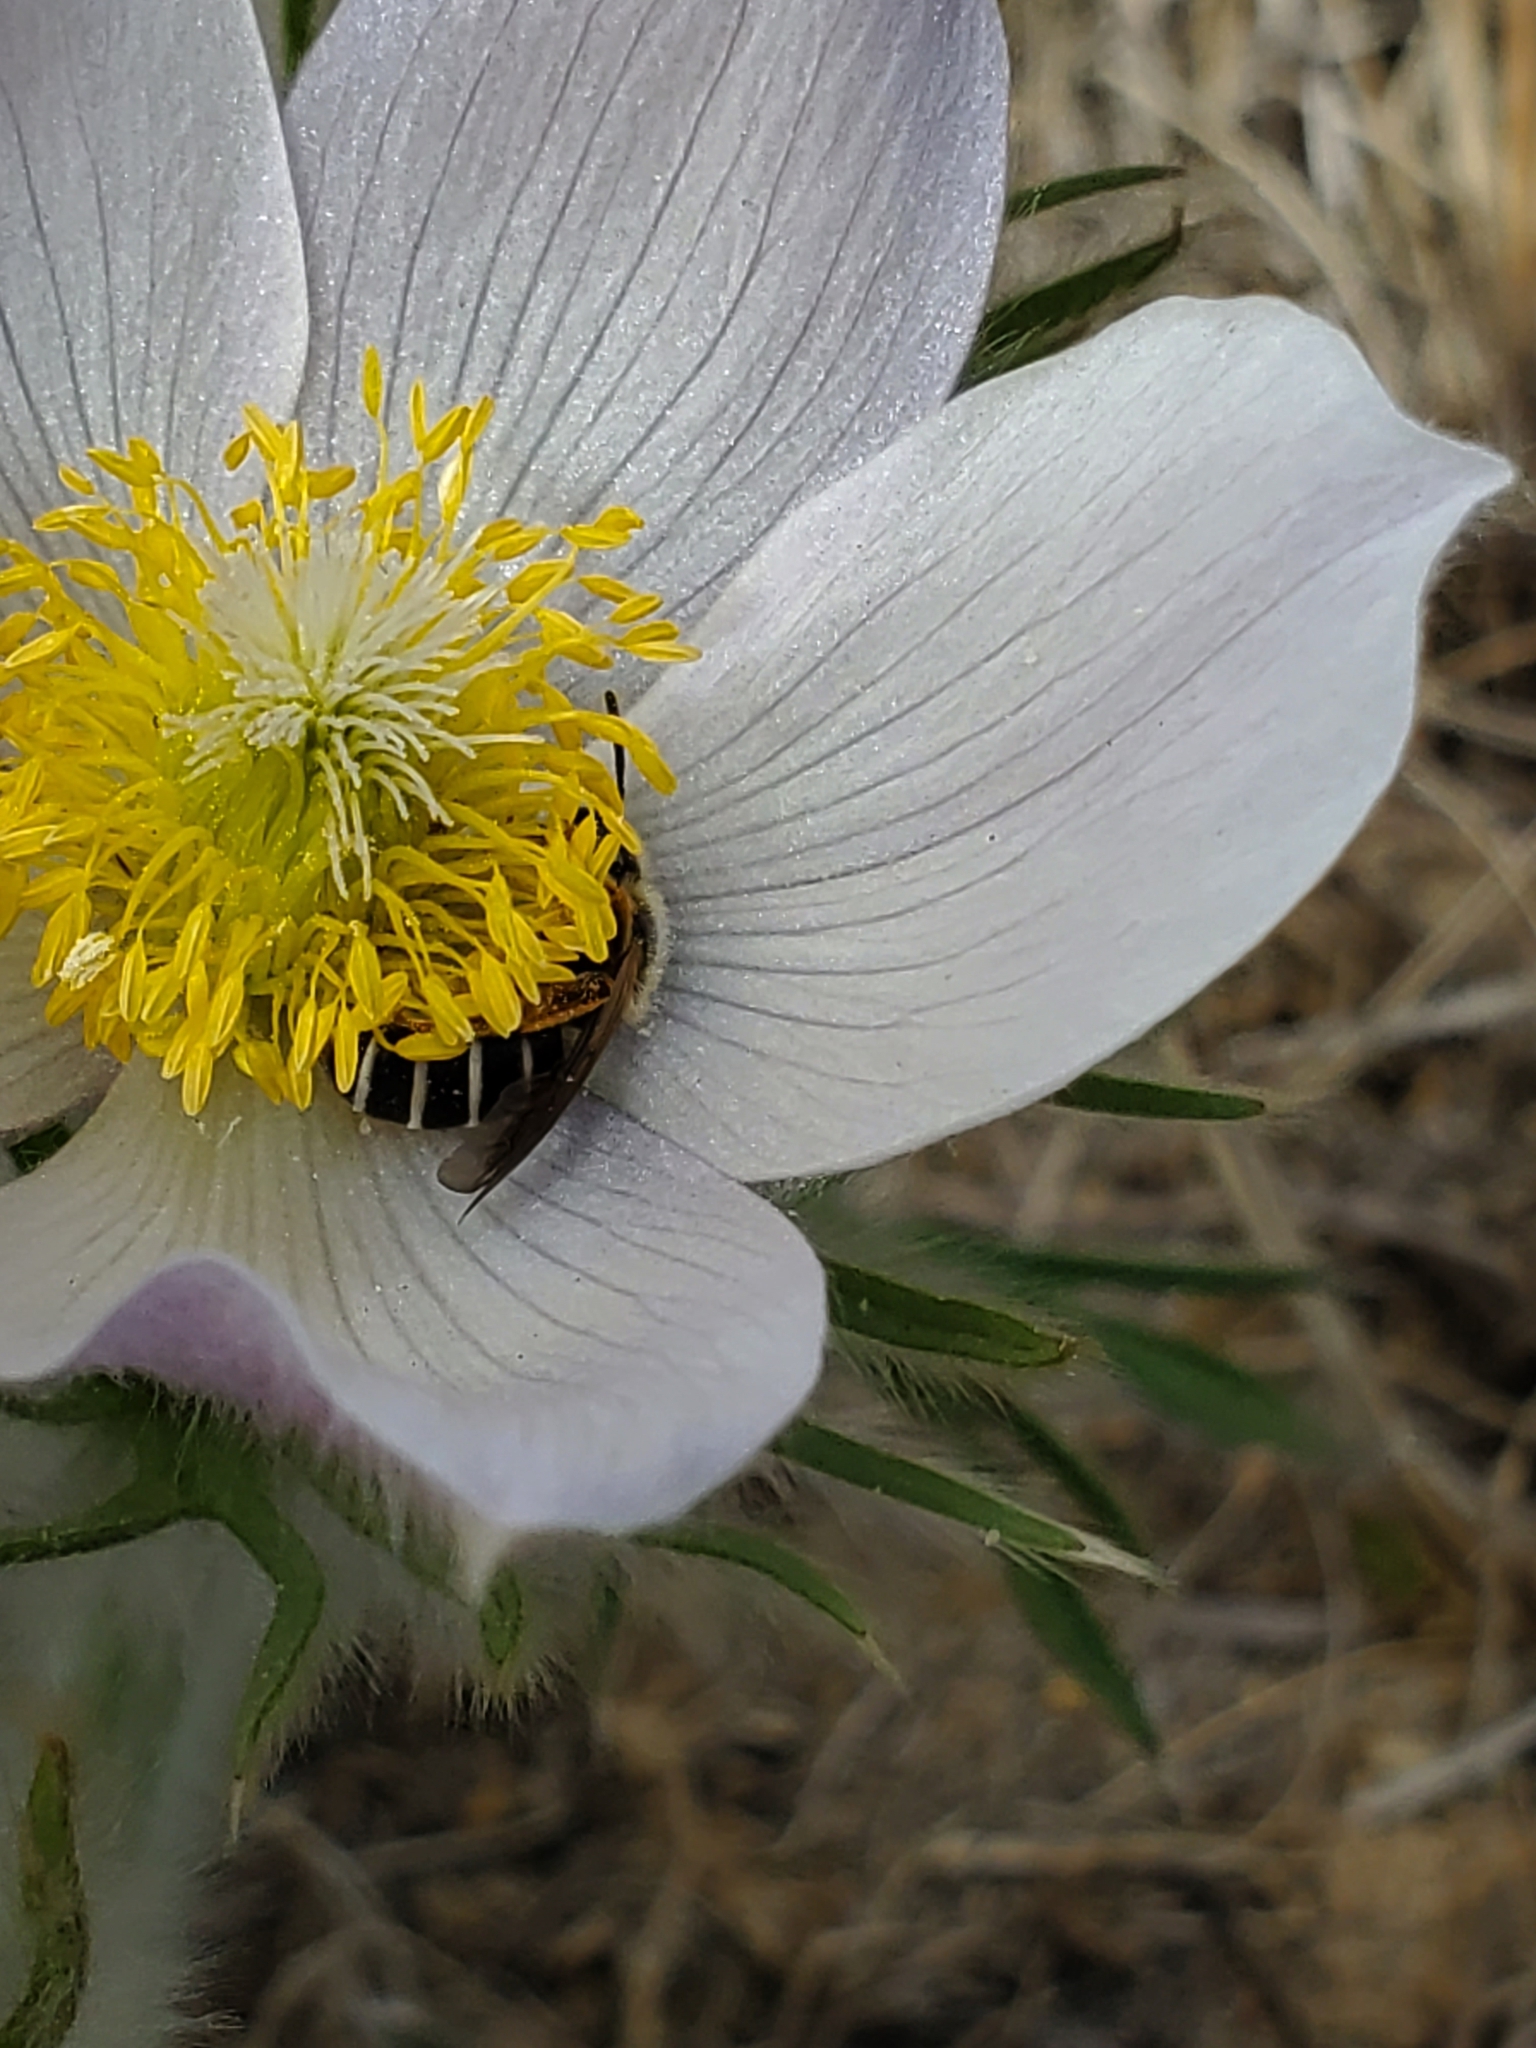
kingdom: Animalia
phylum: Arthropoda
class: Insecta
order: Hymenoptera
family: Halictidae
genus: Halictus
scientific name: Halictus rubicundus
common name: Orange-legged furrow bee
